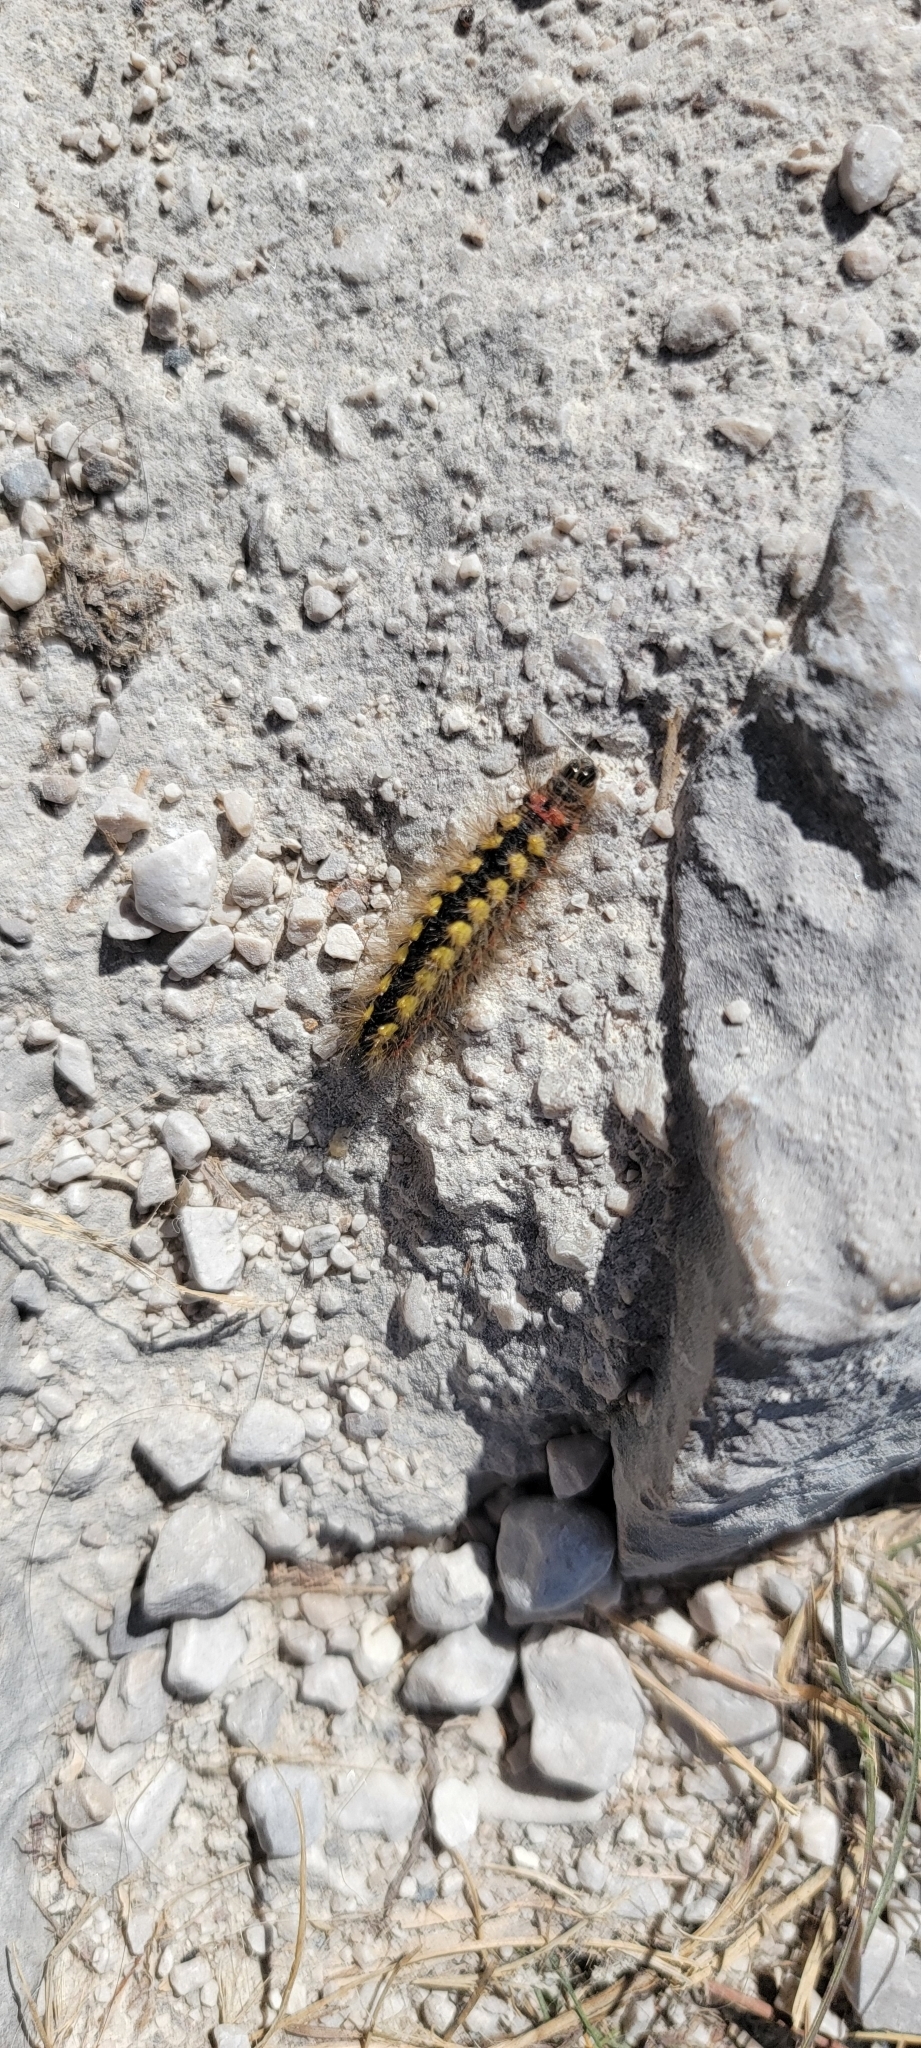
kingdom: Animalia
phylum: Arthropoda
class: Insecta
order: Lepidoptera
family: Noctuidae
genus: Acronicta
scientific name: Acronicta euphorbiae
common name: Sweet gale moth
